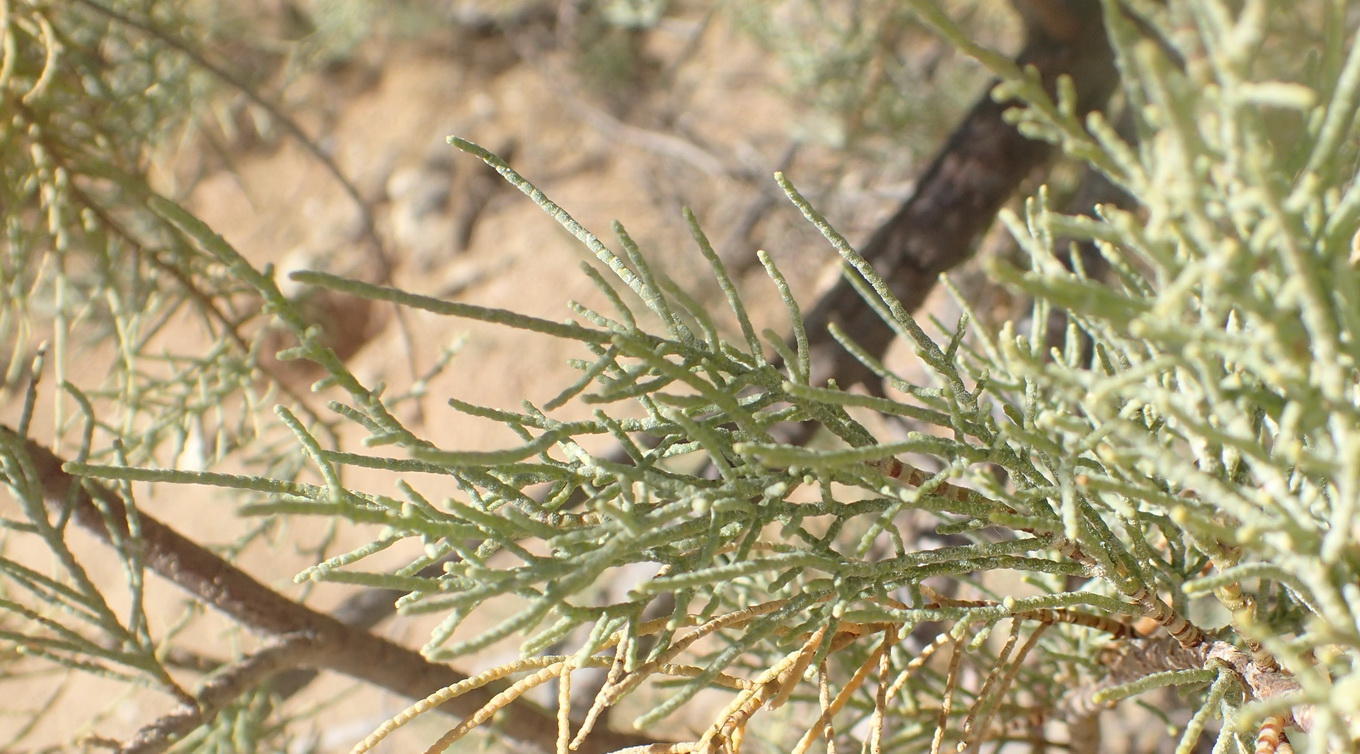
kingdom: Plantae
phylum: Tracheophyta
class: Magnoliopsida
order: Caryophyllales
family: Tamaricaceae
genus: Tamarix
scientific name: Tamarix usneoides
